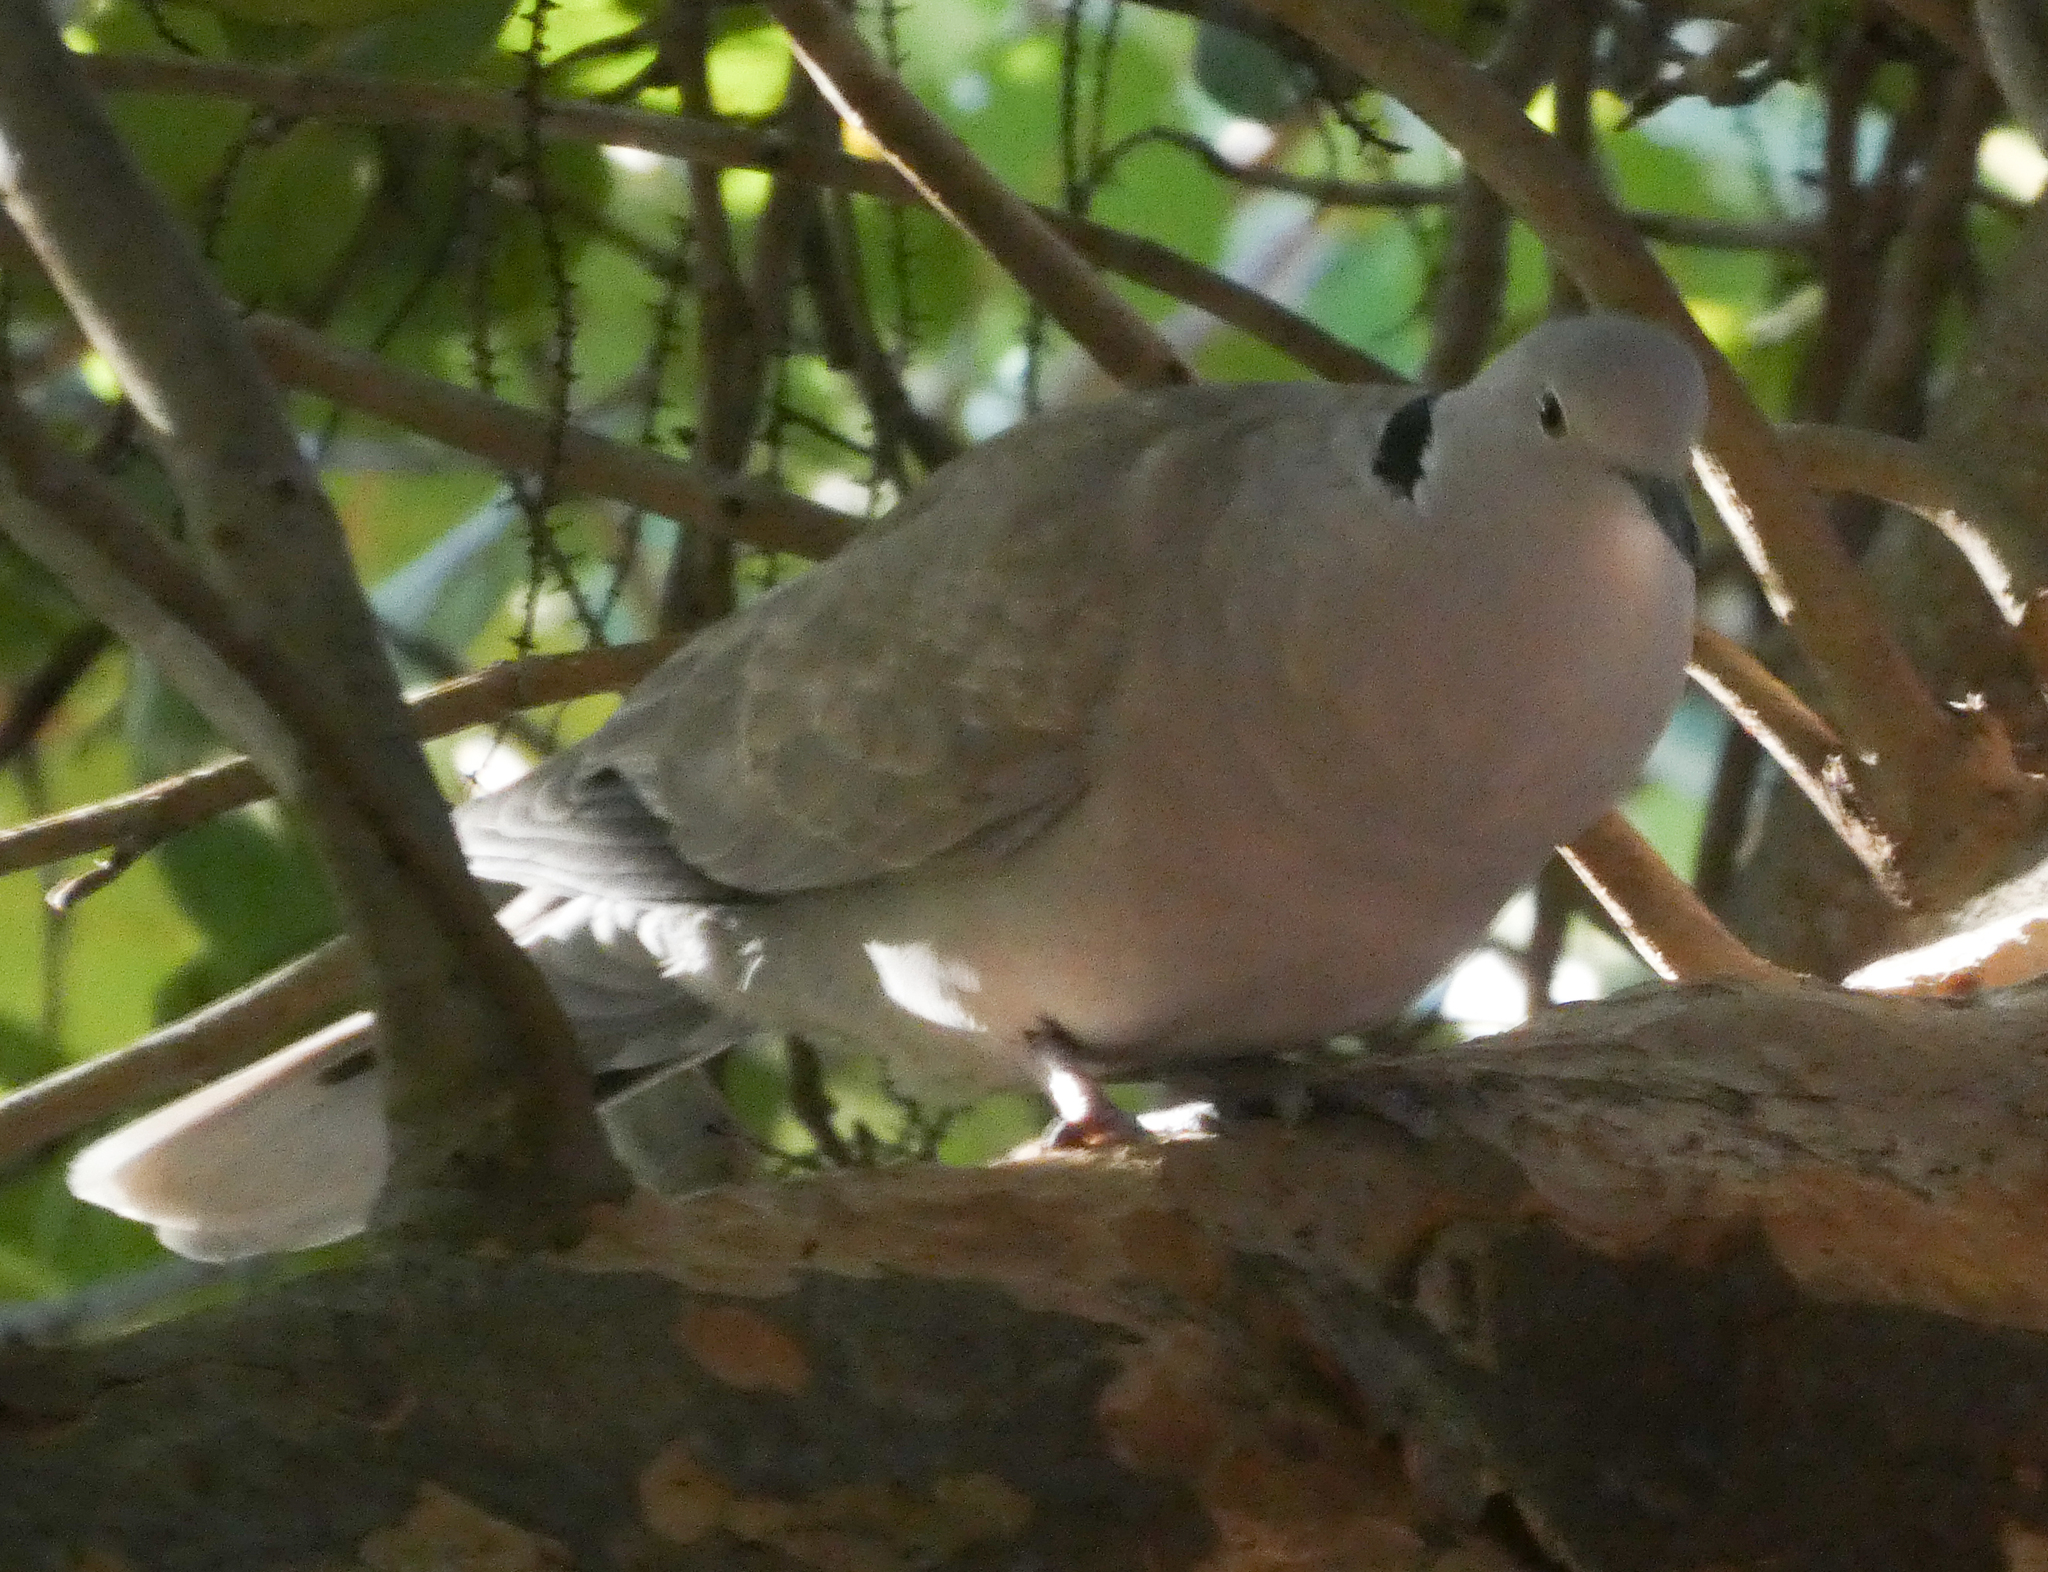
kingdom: Animalia
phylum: Chordata
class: Aves
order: Columbiformes
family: Columbidae
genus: Streptopelia
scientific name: Streptopelia decaocto
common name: Eurasian collared dove
